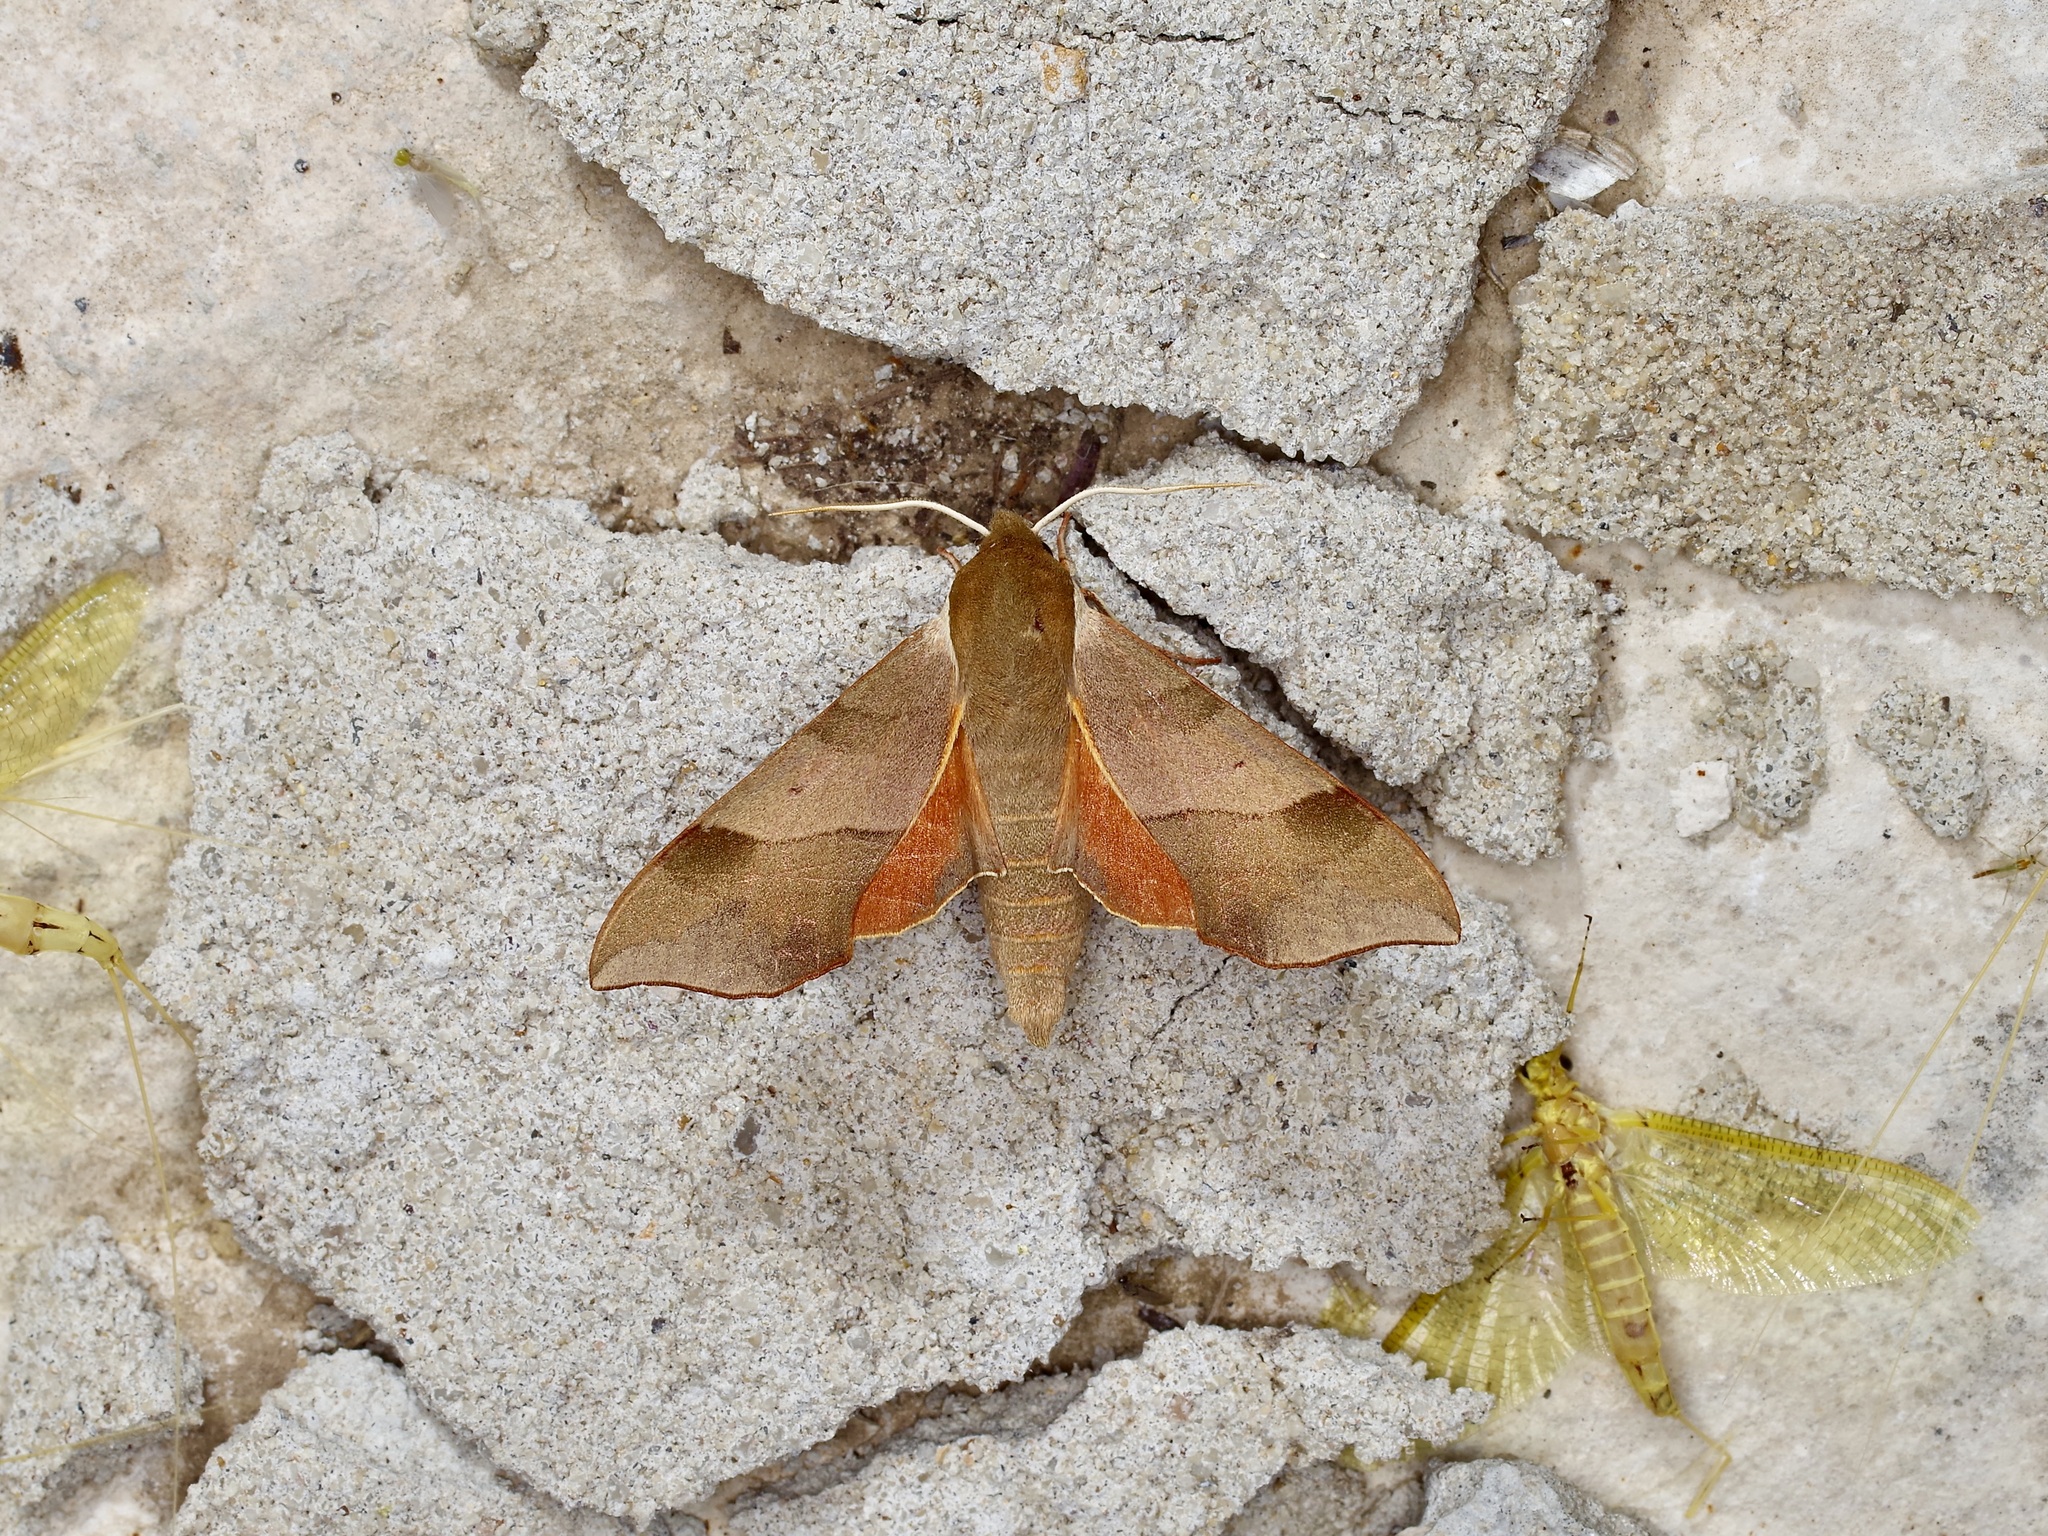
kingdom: Animalia
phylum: Arthropoda
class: Insecta
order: Lepidoptera
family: Sphingidae
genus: Darapsa
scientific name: Darapsa myron
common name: Hog sphinx
